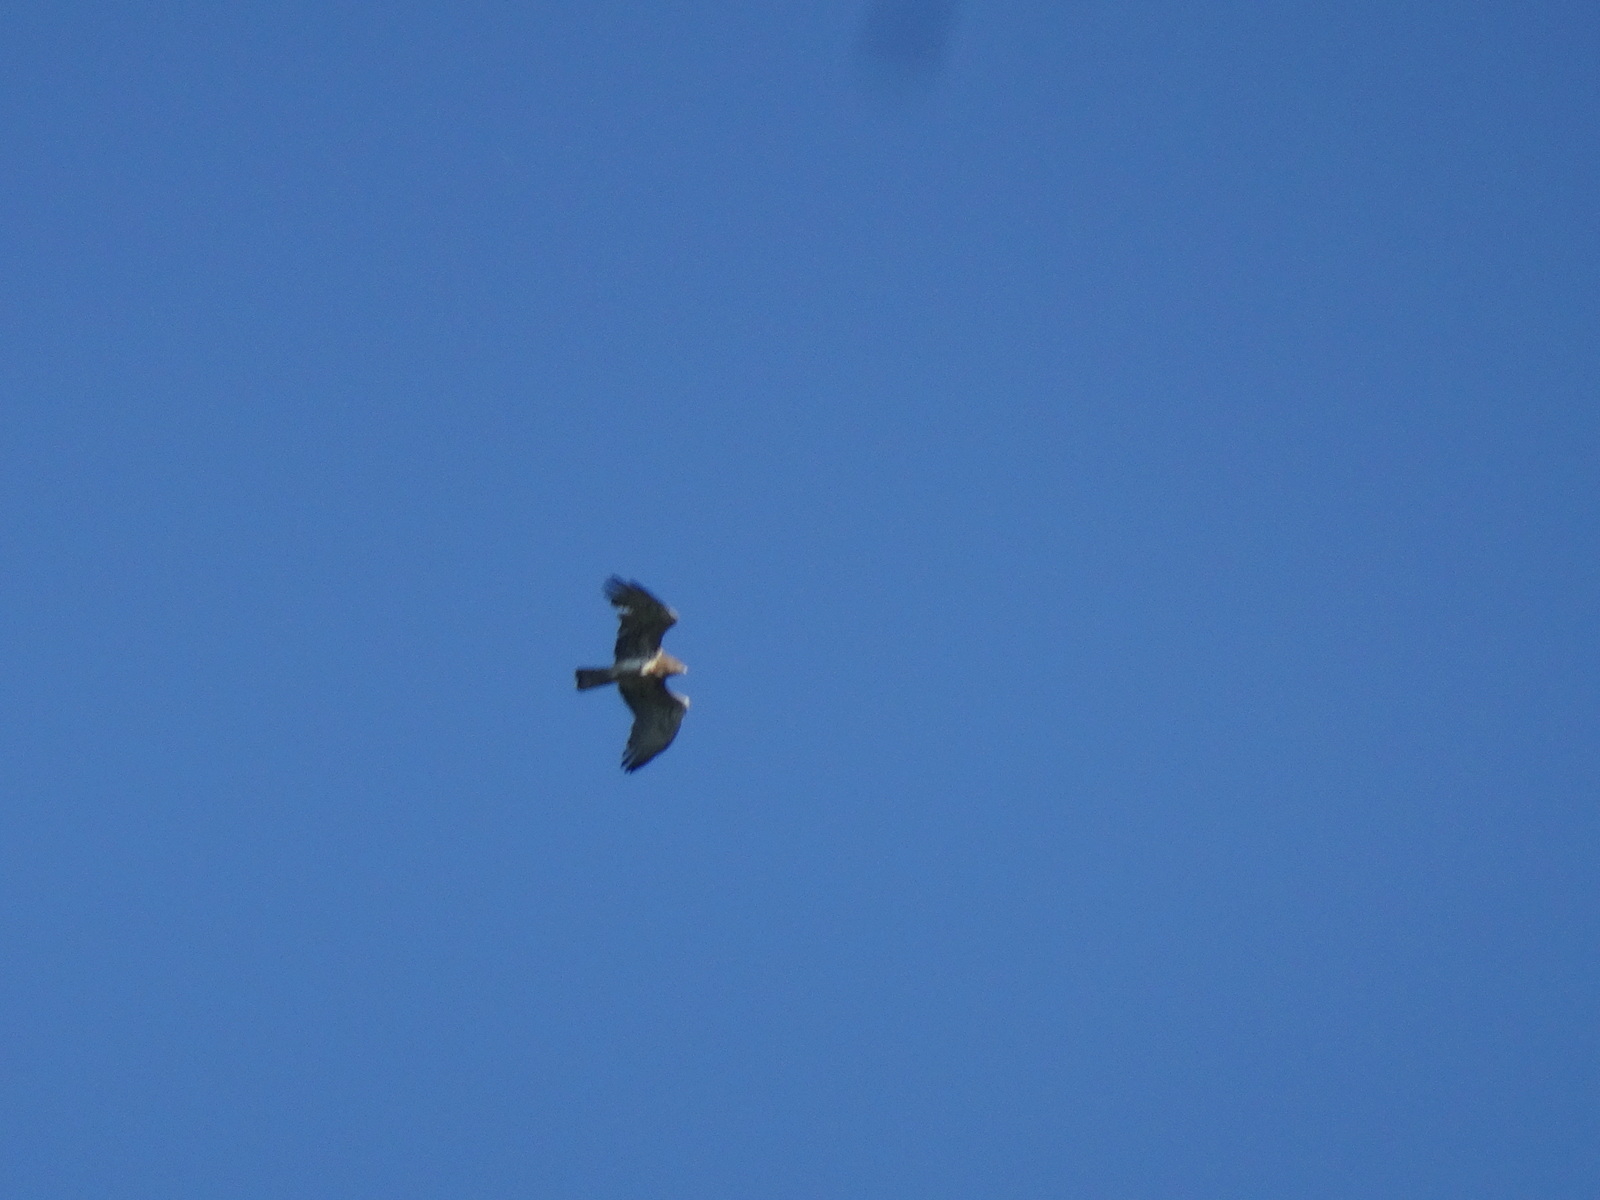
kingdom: Animalia
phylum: Chordata
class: Aves
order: Accipitriformes
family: Accipitridae
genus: Circaetus
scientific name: Circaetus gallicus
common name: Short-toed snake eagle
